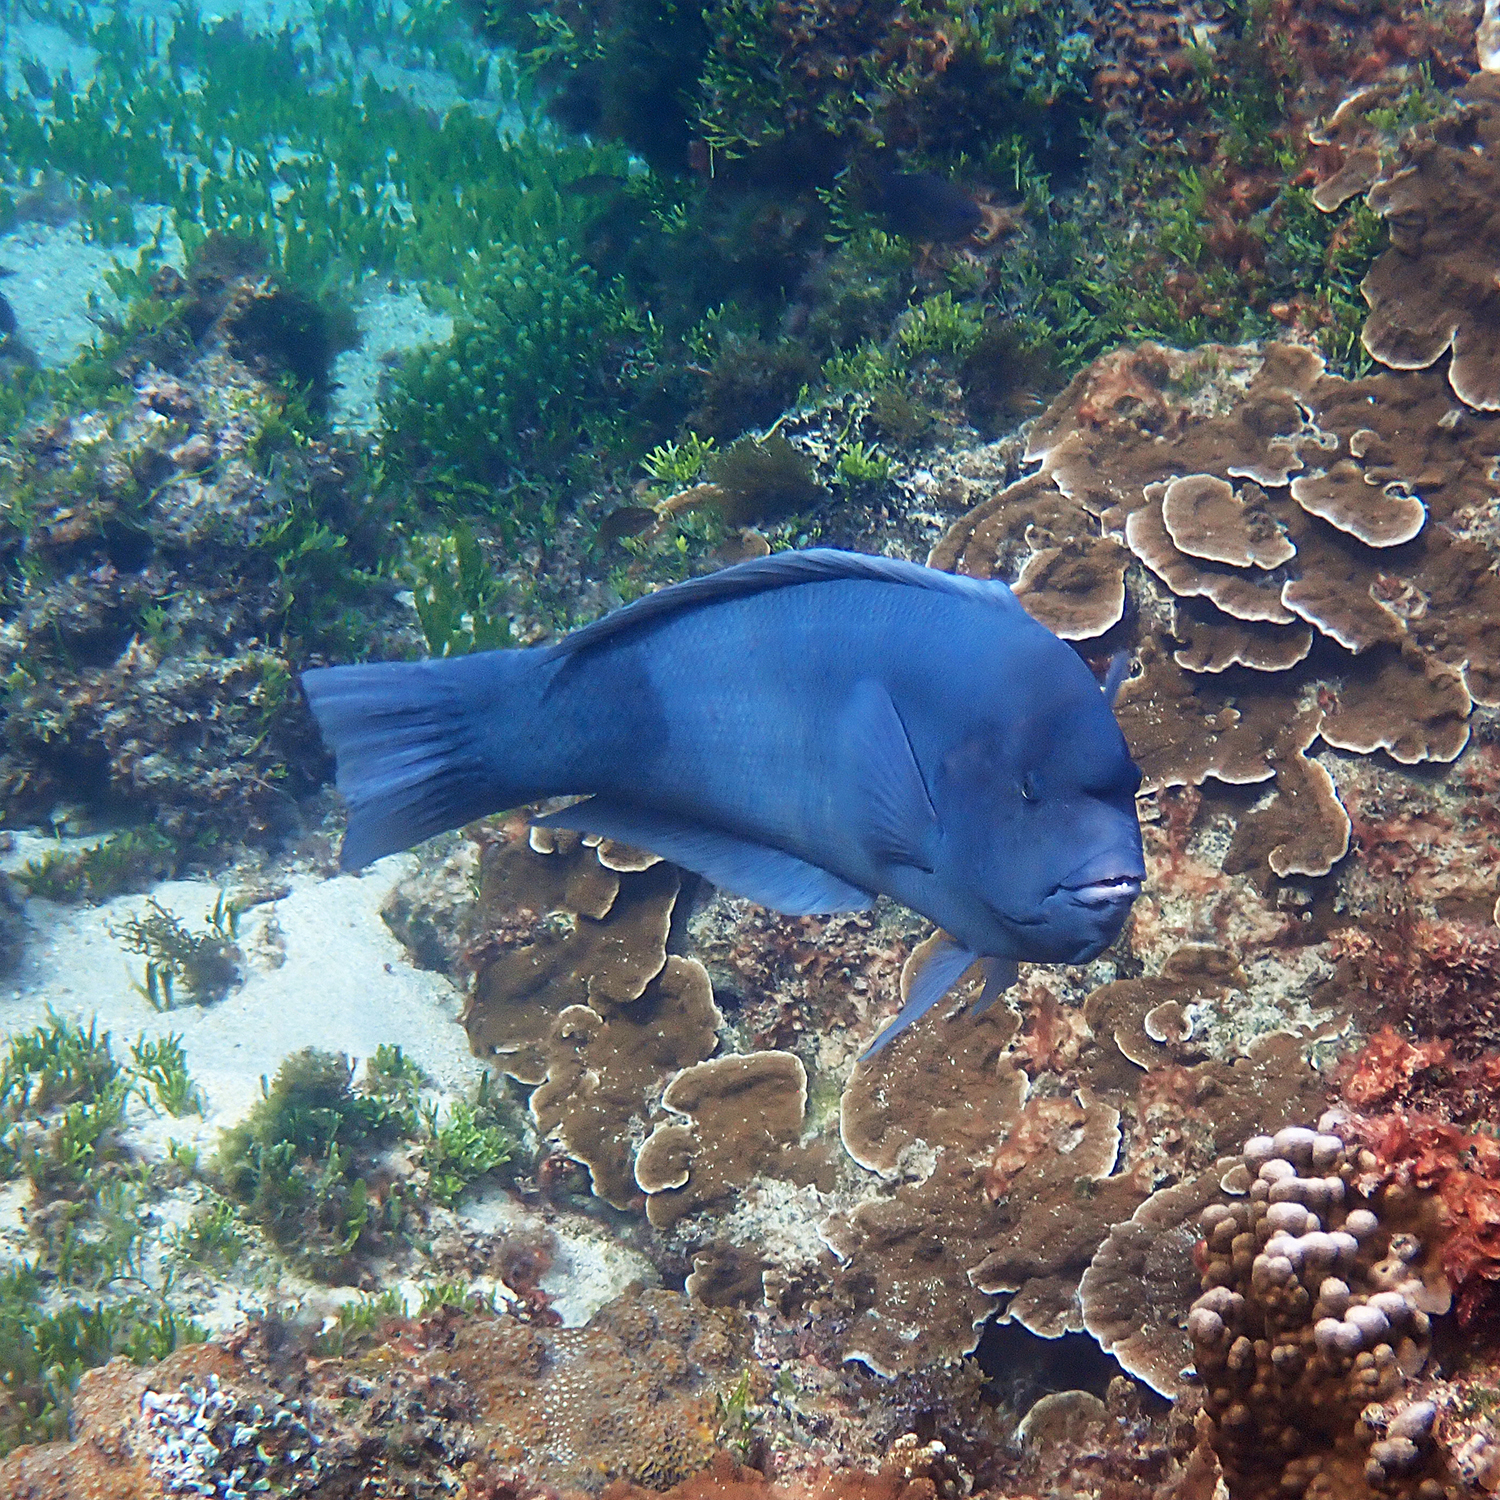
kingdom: Animalia
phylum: Chordata
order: Perciformes
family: Labridae
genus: Coris
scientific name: Coris bulbifrons
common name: Doubleheader
